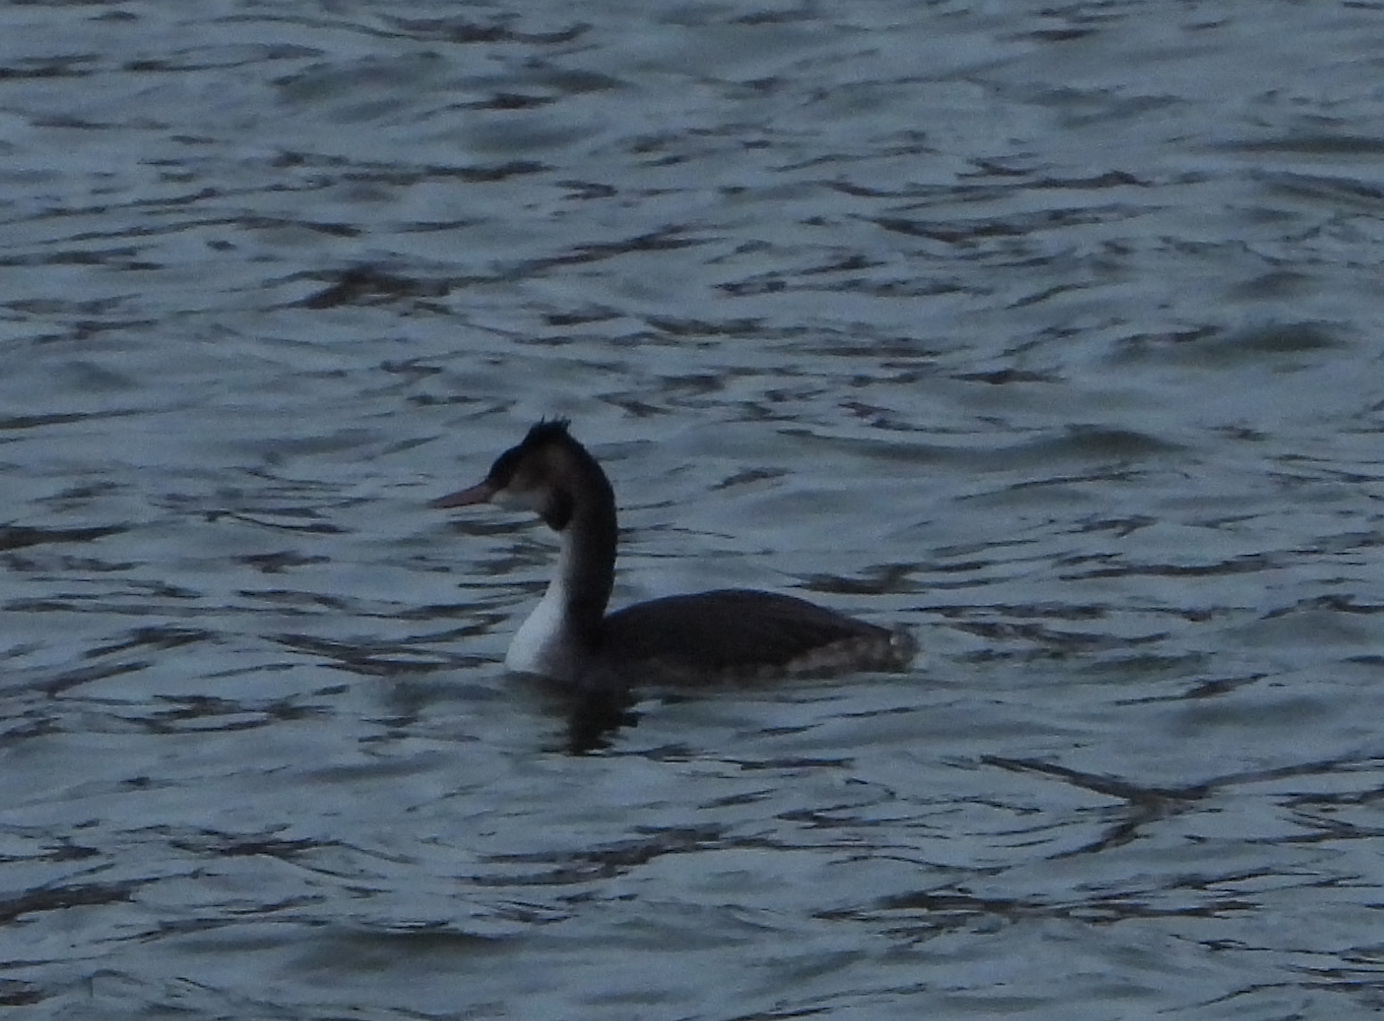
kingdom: Animalia
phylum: Chordata
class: Aves
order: Podicipediformes
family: Podicipedidae
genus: Podiceps
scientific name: Podiceps cristatus
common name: Great crested grebe
